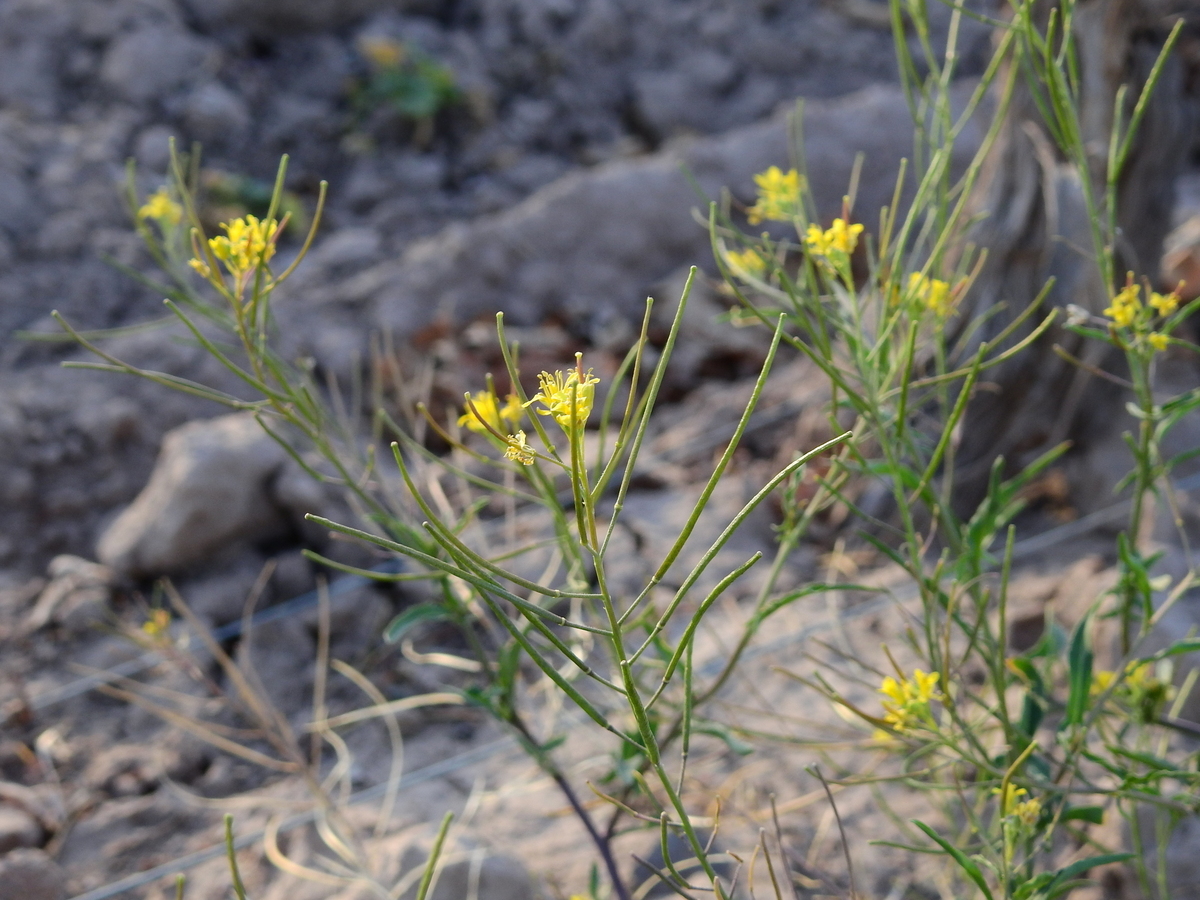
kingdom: Plantae
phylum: Tracheophyta
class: Magnoliopsida
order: Brassicales
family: Brassicaceae
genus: Sisymbrium
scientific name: Sisymbrium irio
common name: London rocket
